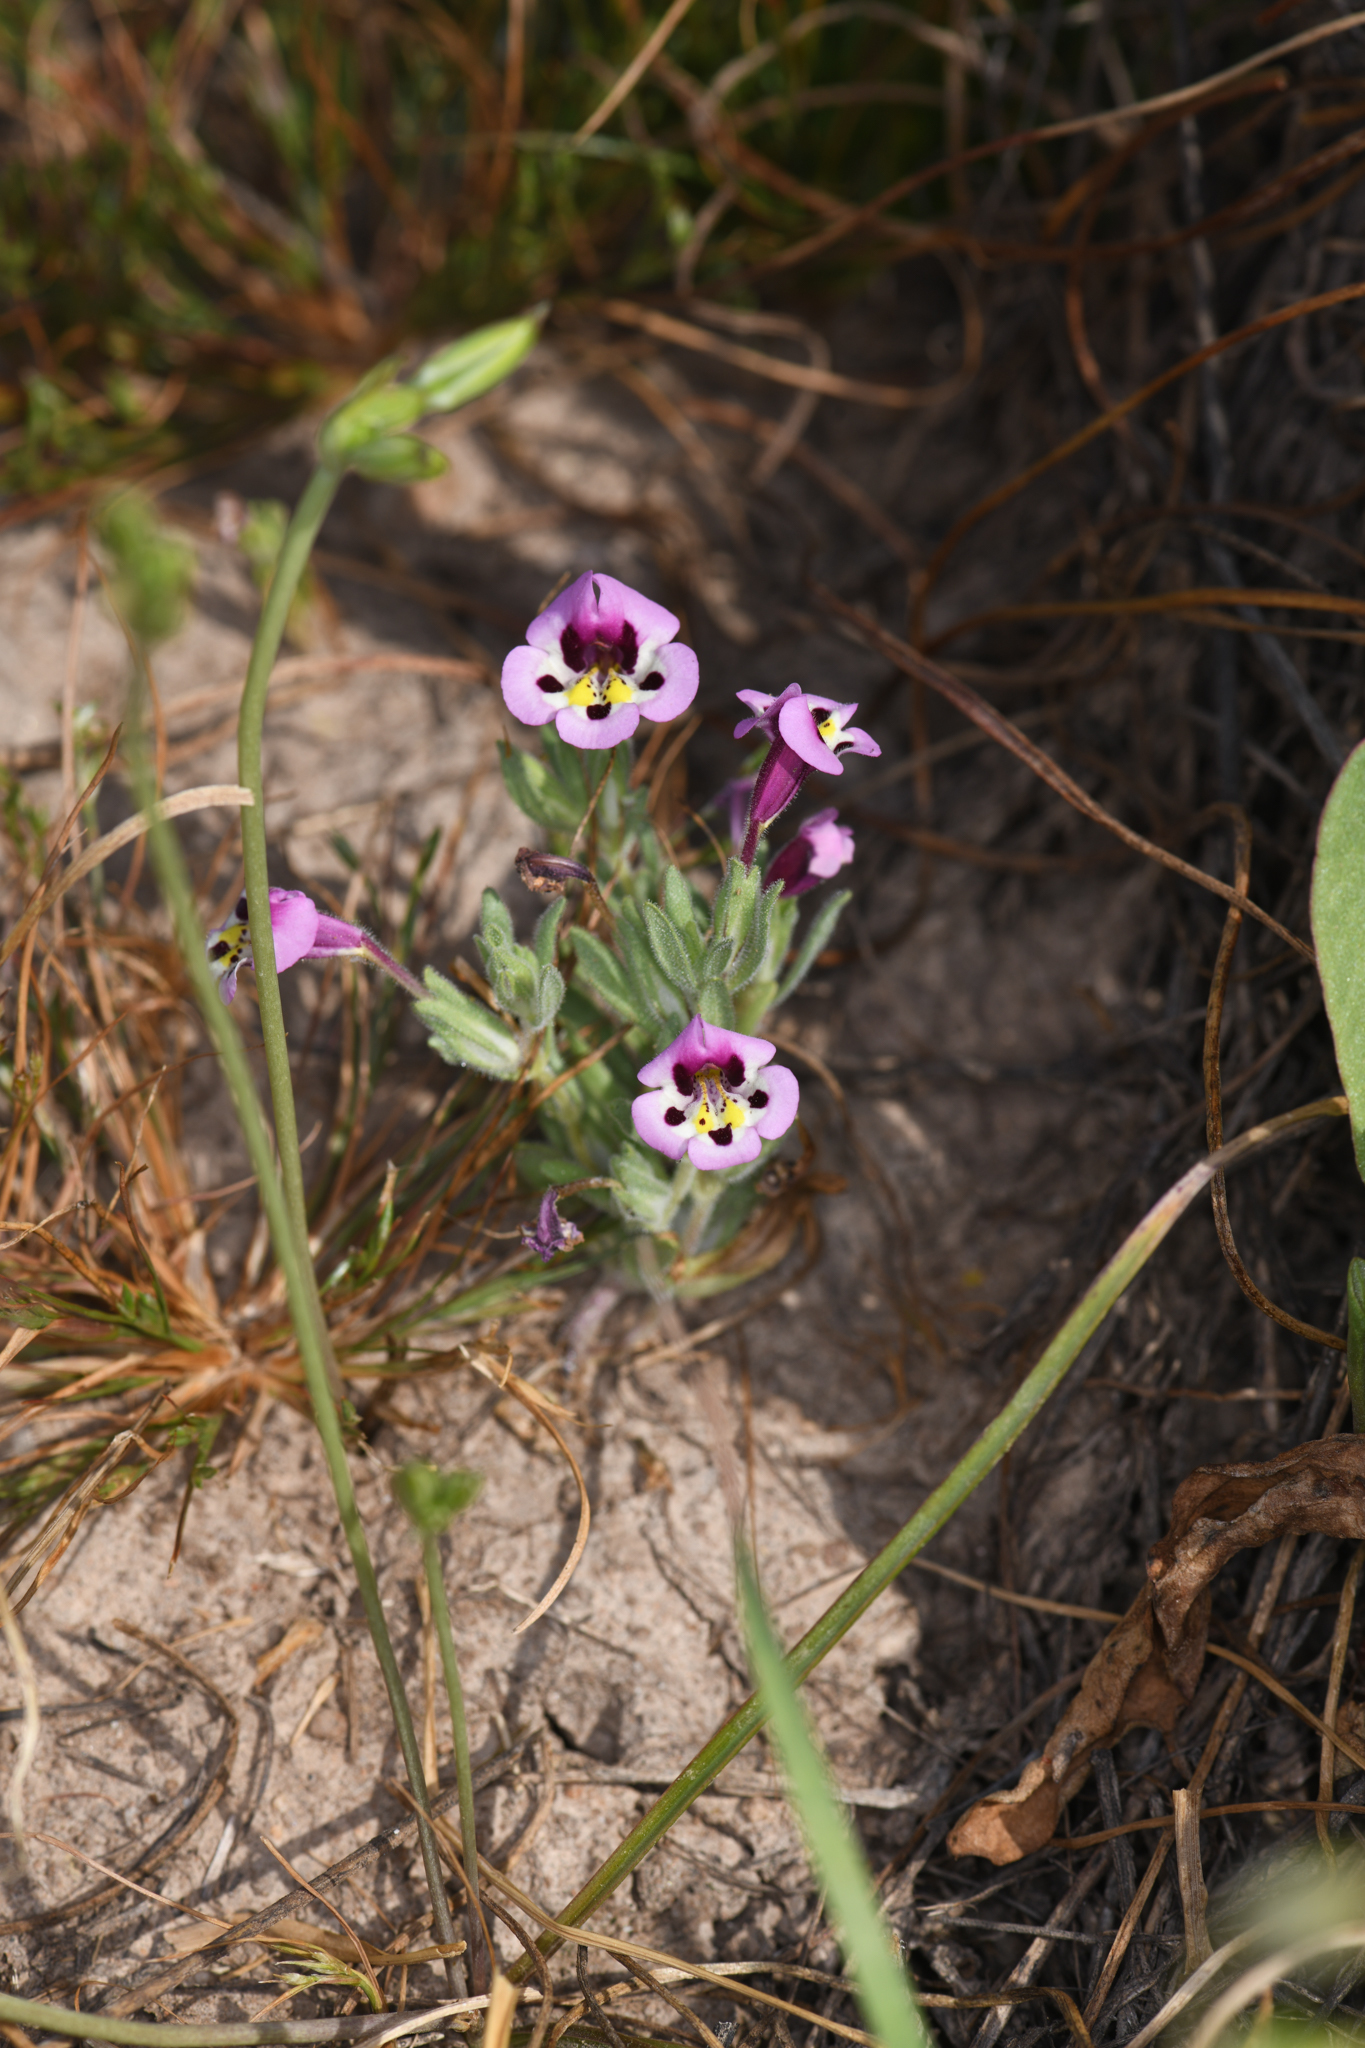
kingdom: Plantae
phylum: Tracheophyta
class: Magnoliopsida
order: Lamiales
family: Phrymaceae
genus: Diplacus
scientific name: Diplacus tricolor
